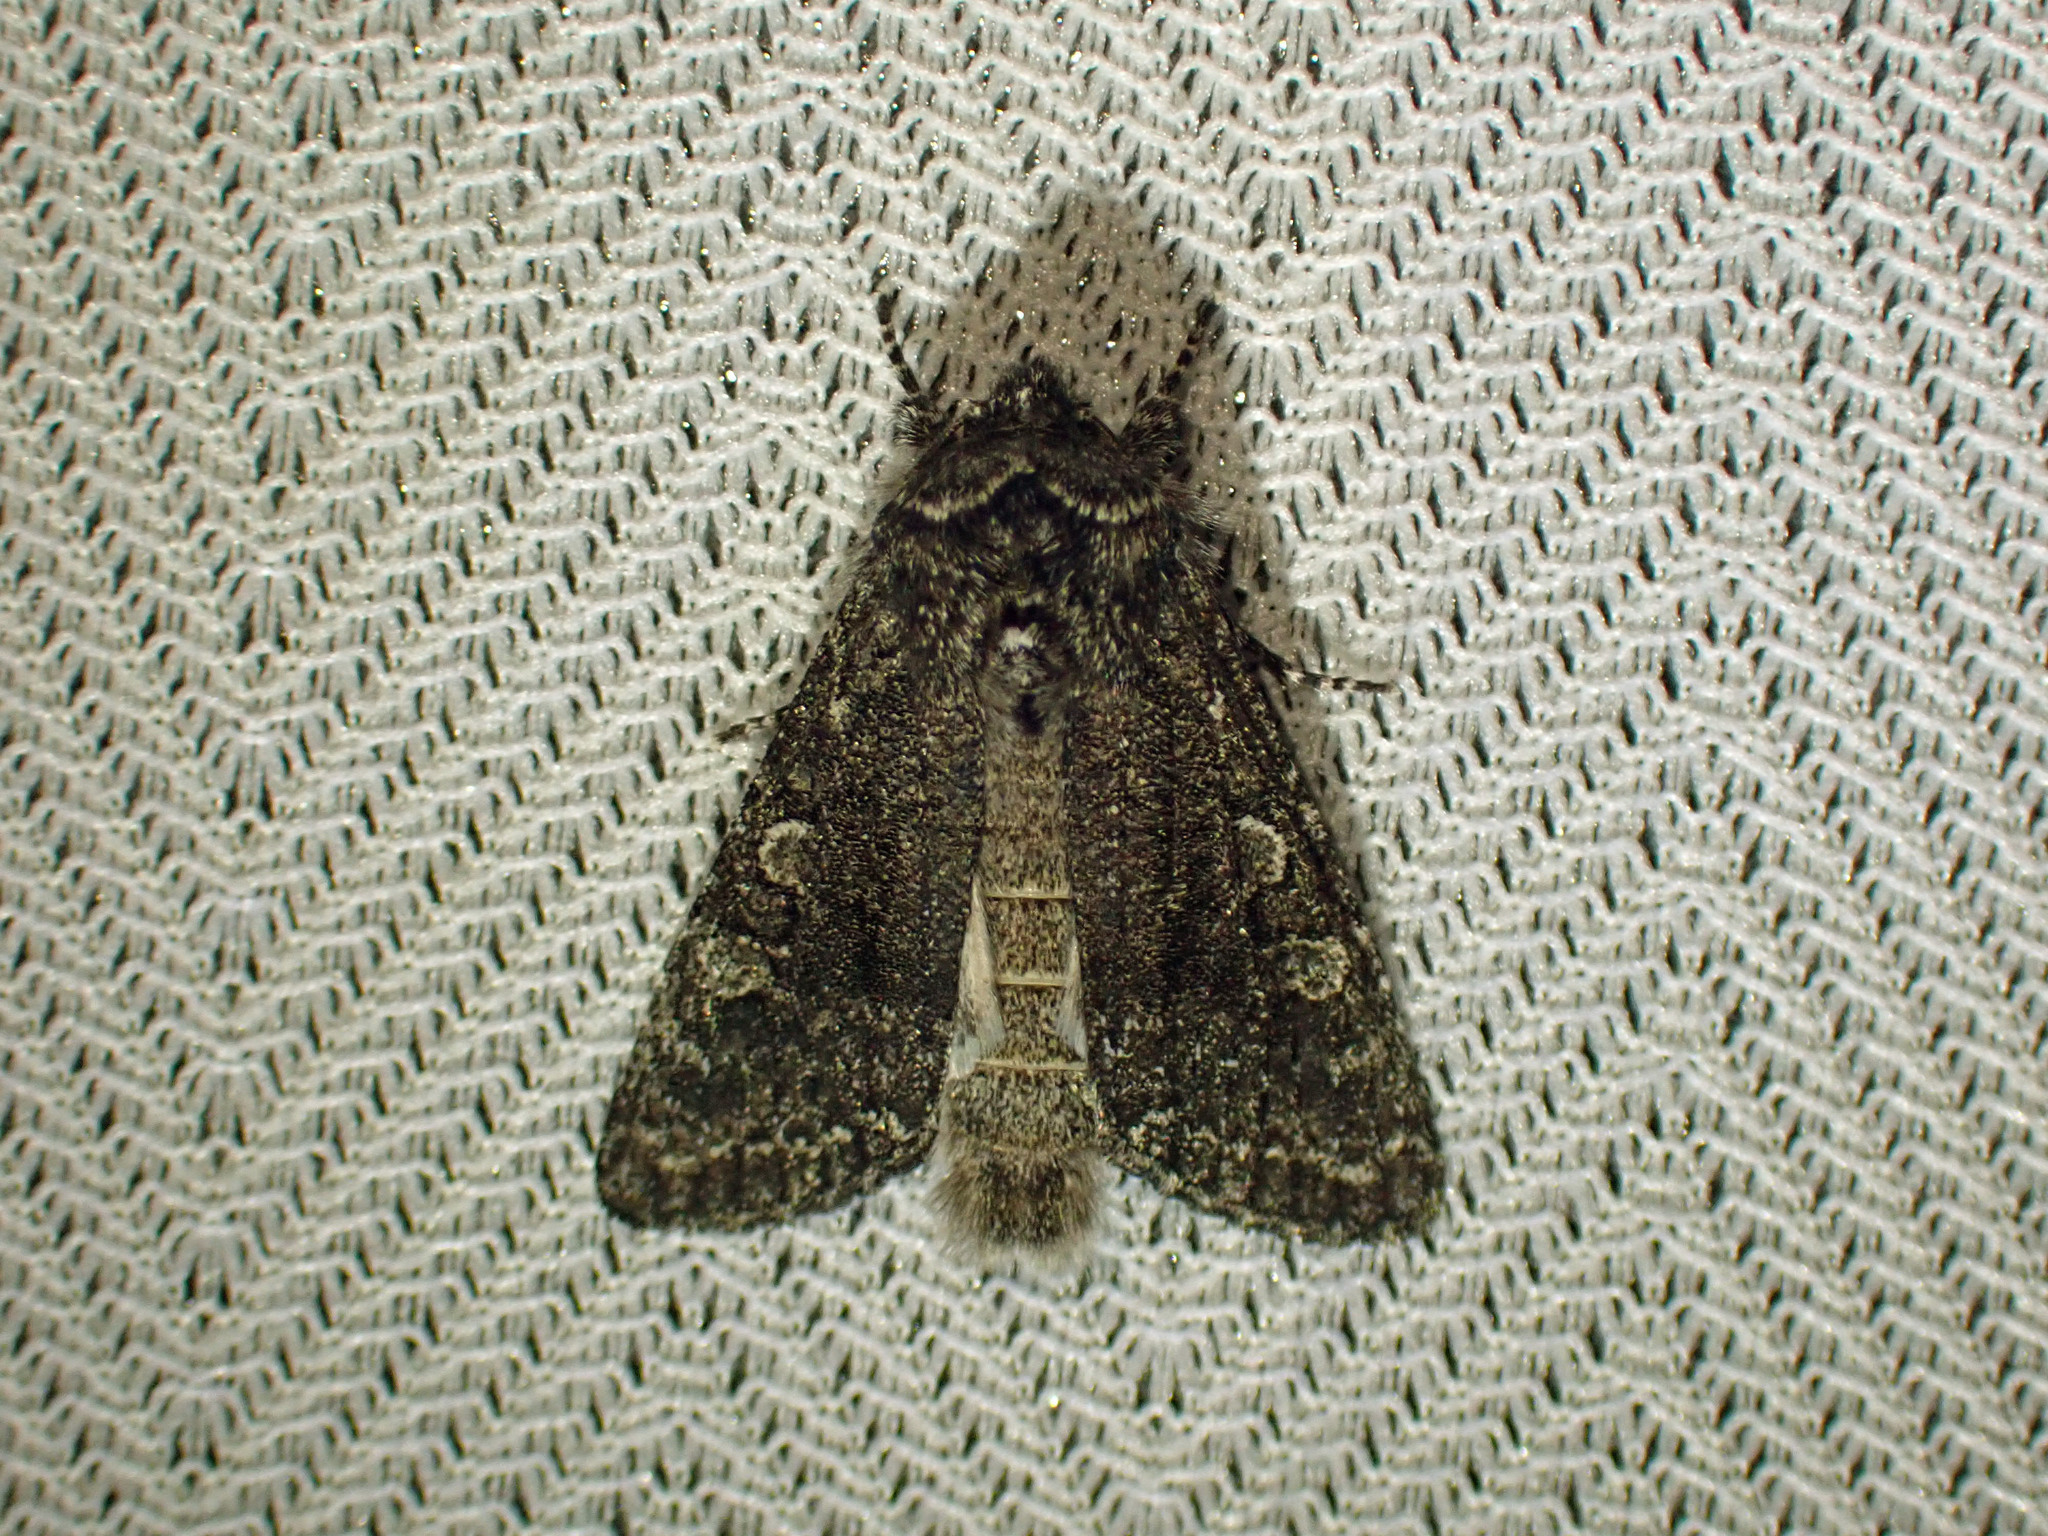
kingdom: Animalia
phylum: Arthropoda
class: Insecta
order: Lepidoptera
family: Noctuidae
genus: Egira
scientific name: Egira dolosa
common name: Lined black aspen cat.
